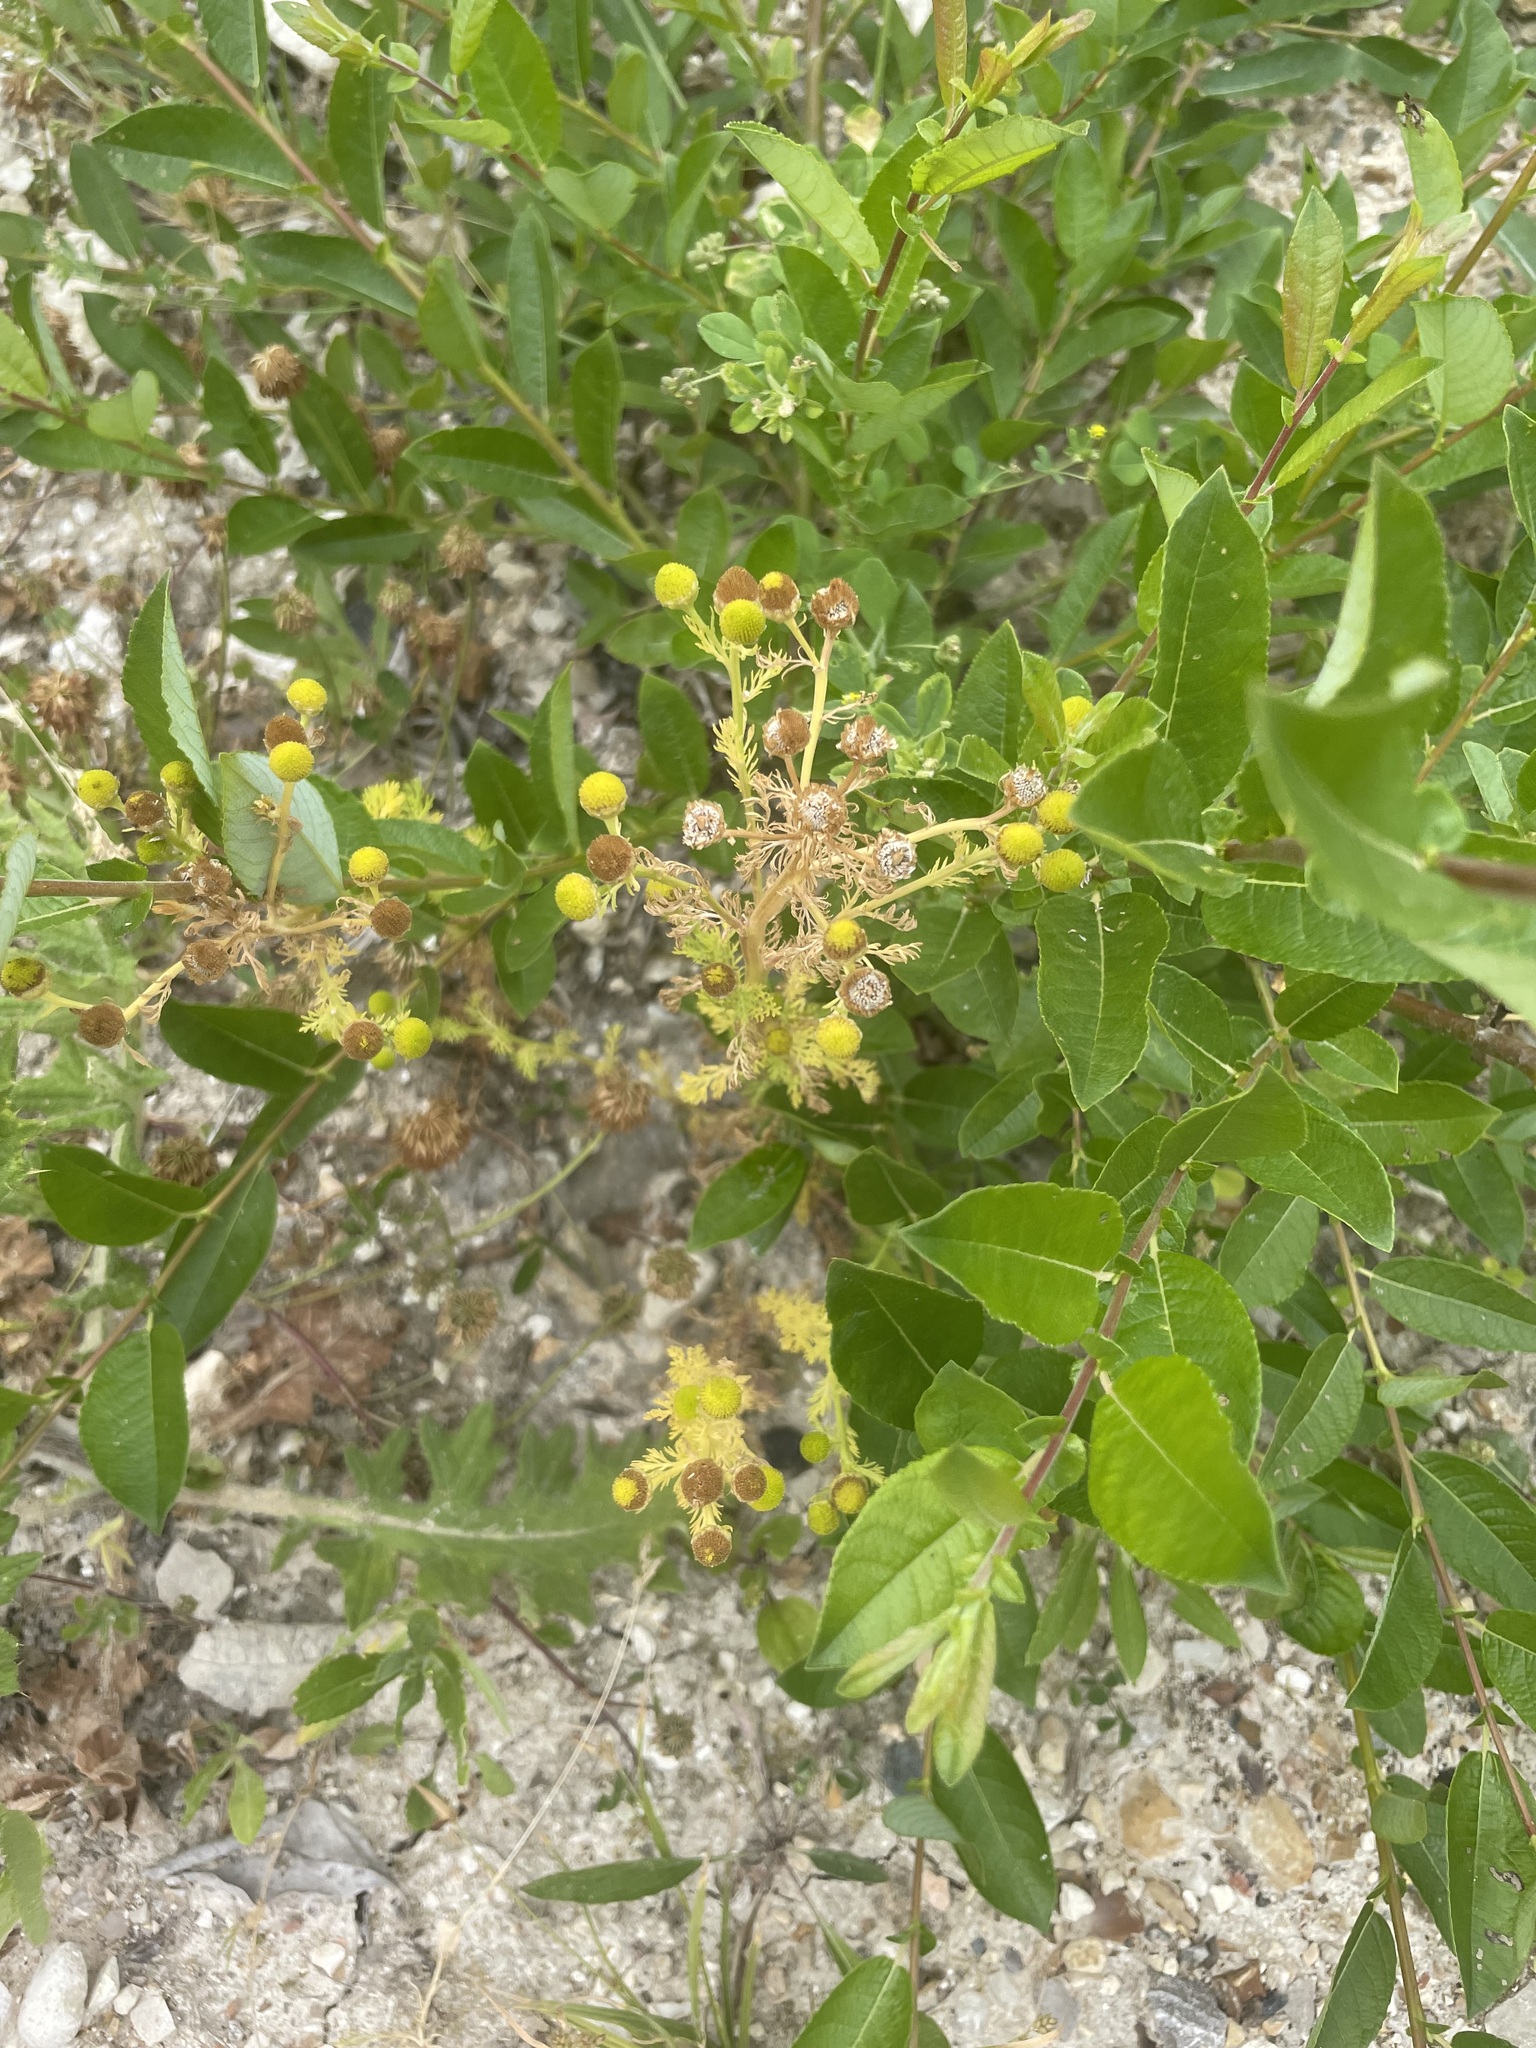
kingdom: Plantae
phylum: Tracheophyta
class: Magnoliopsida
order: Asterales
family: Asteraceae
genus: Matricaria
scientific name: Matricaria discoidea
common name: Disc mayweed
